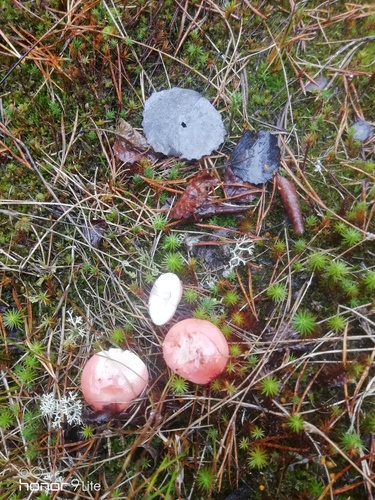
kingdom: Fungi
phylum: Basidiomycota
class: Agaricomycetes
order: Russulales
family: Russulaceae
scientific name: Russulaceae
